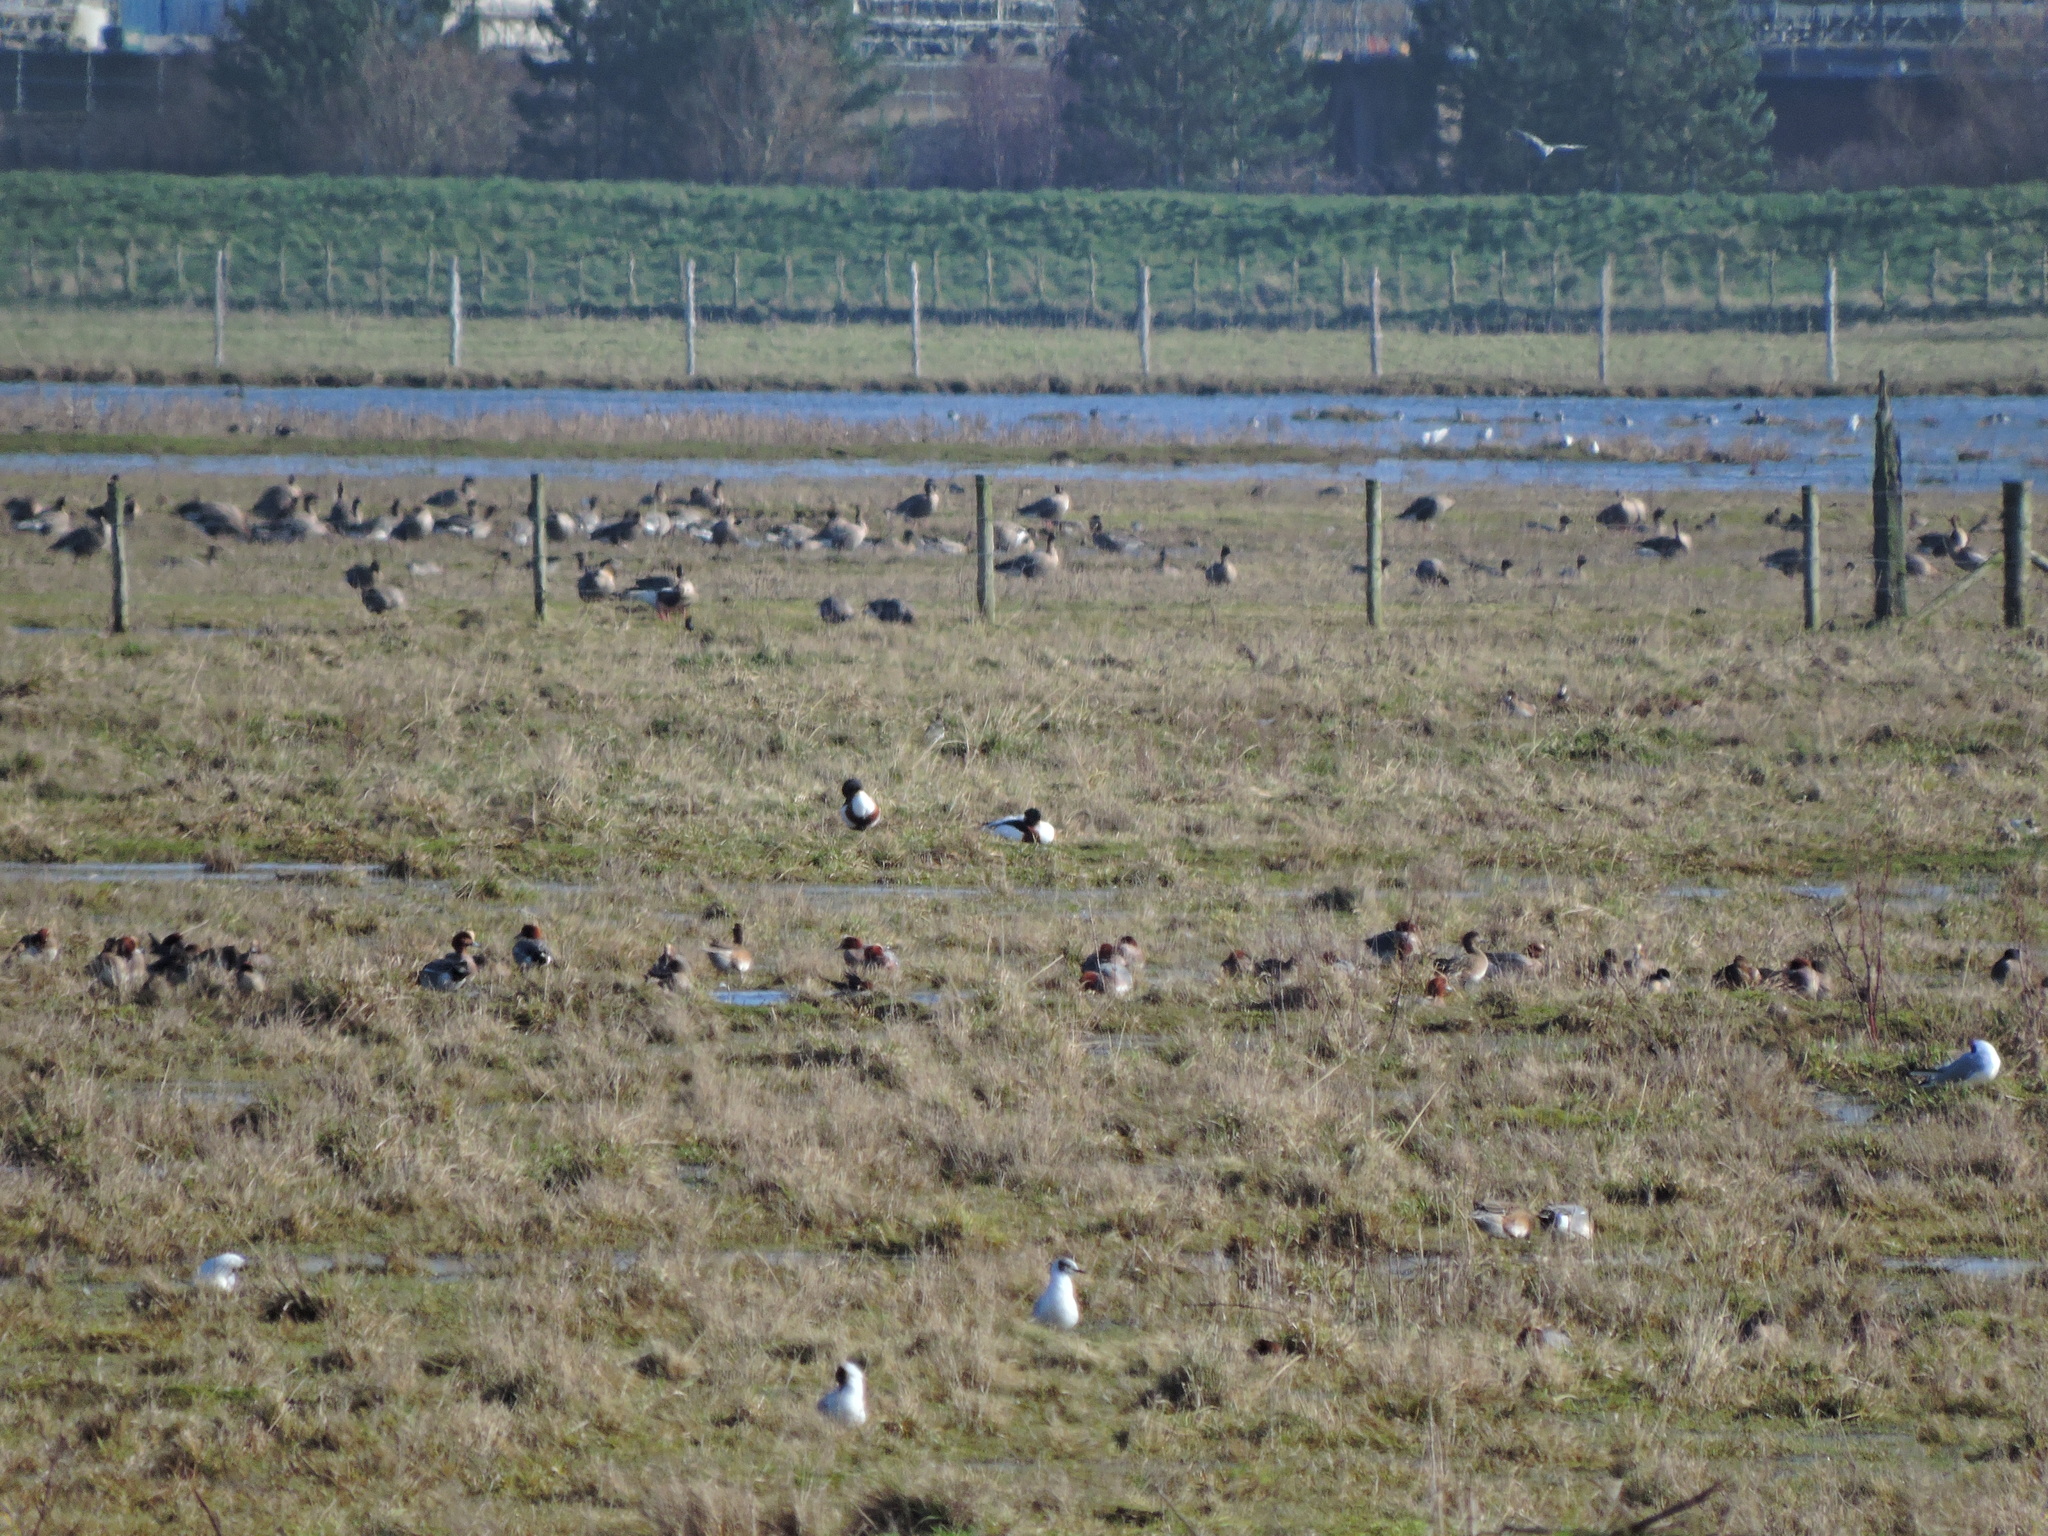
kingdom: Animalia
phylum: Chordata
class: Aves
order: Anseriformes
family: Anatidae
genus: Tadorna
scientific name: Tadorna tadorna
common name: Common shelduck
